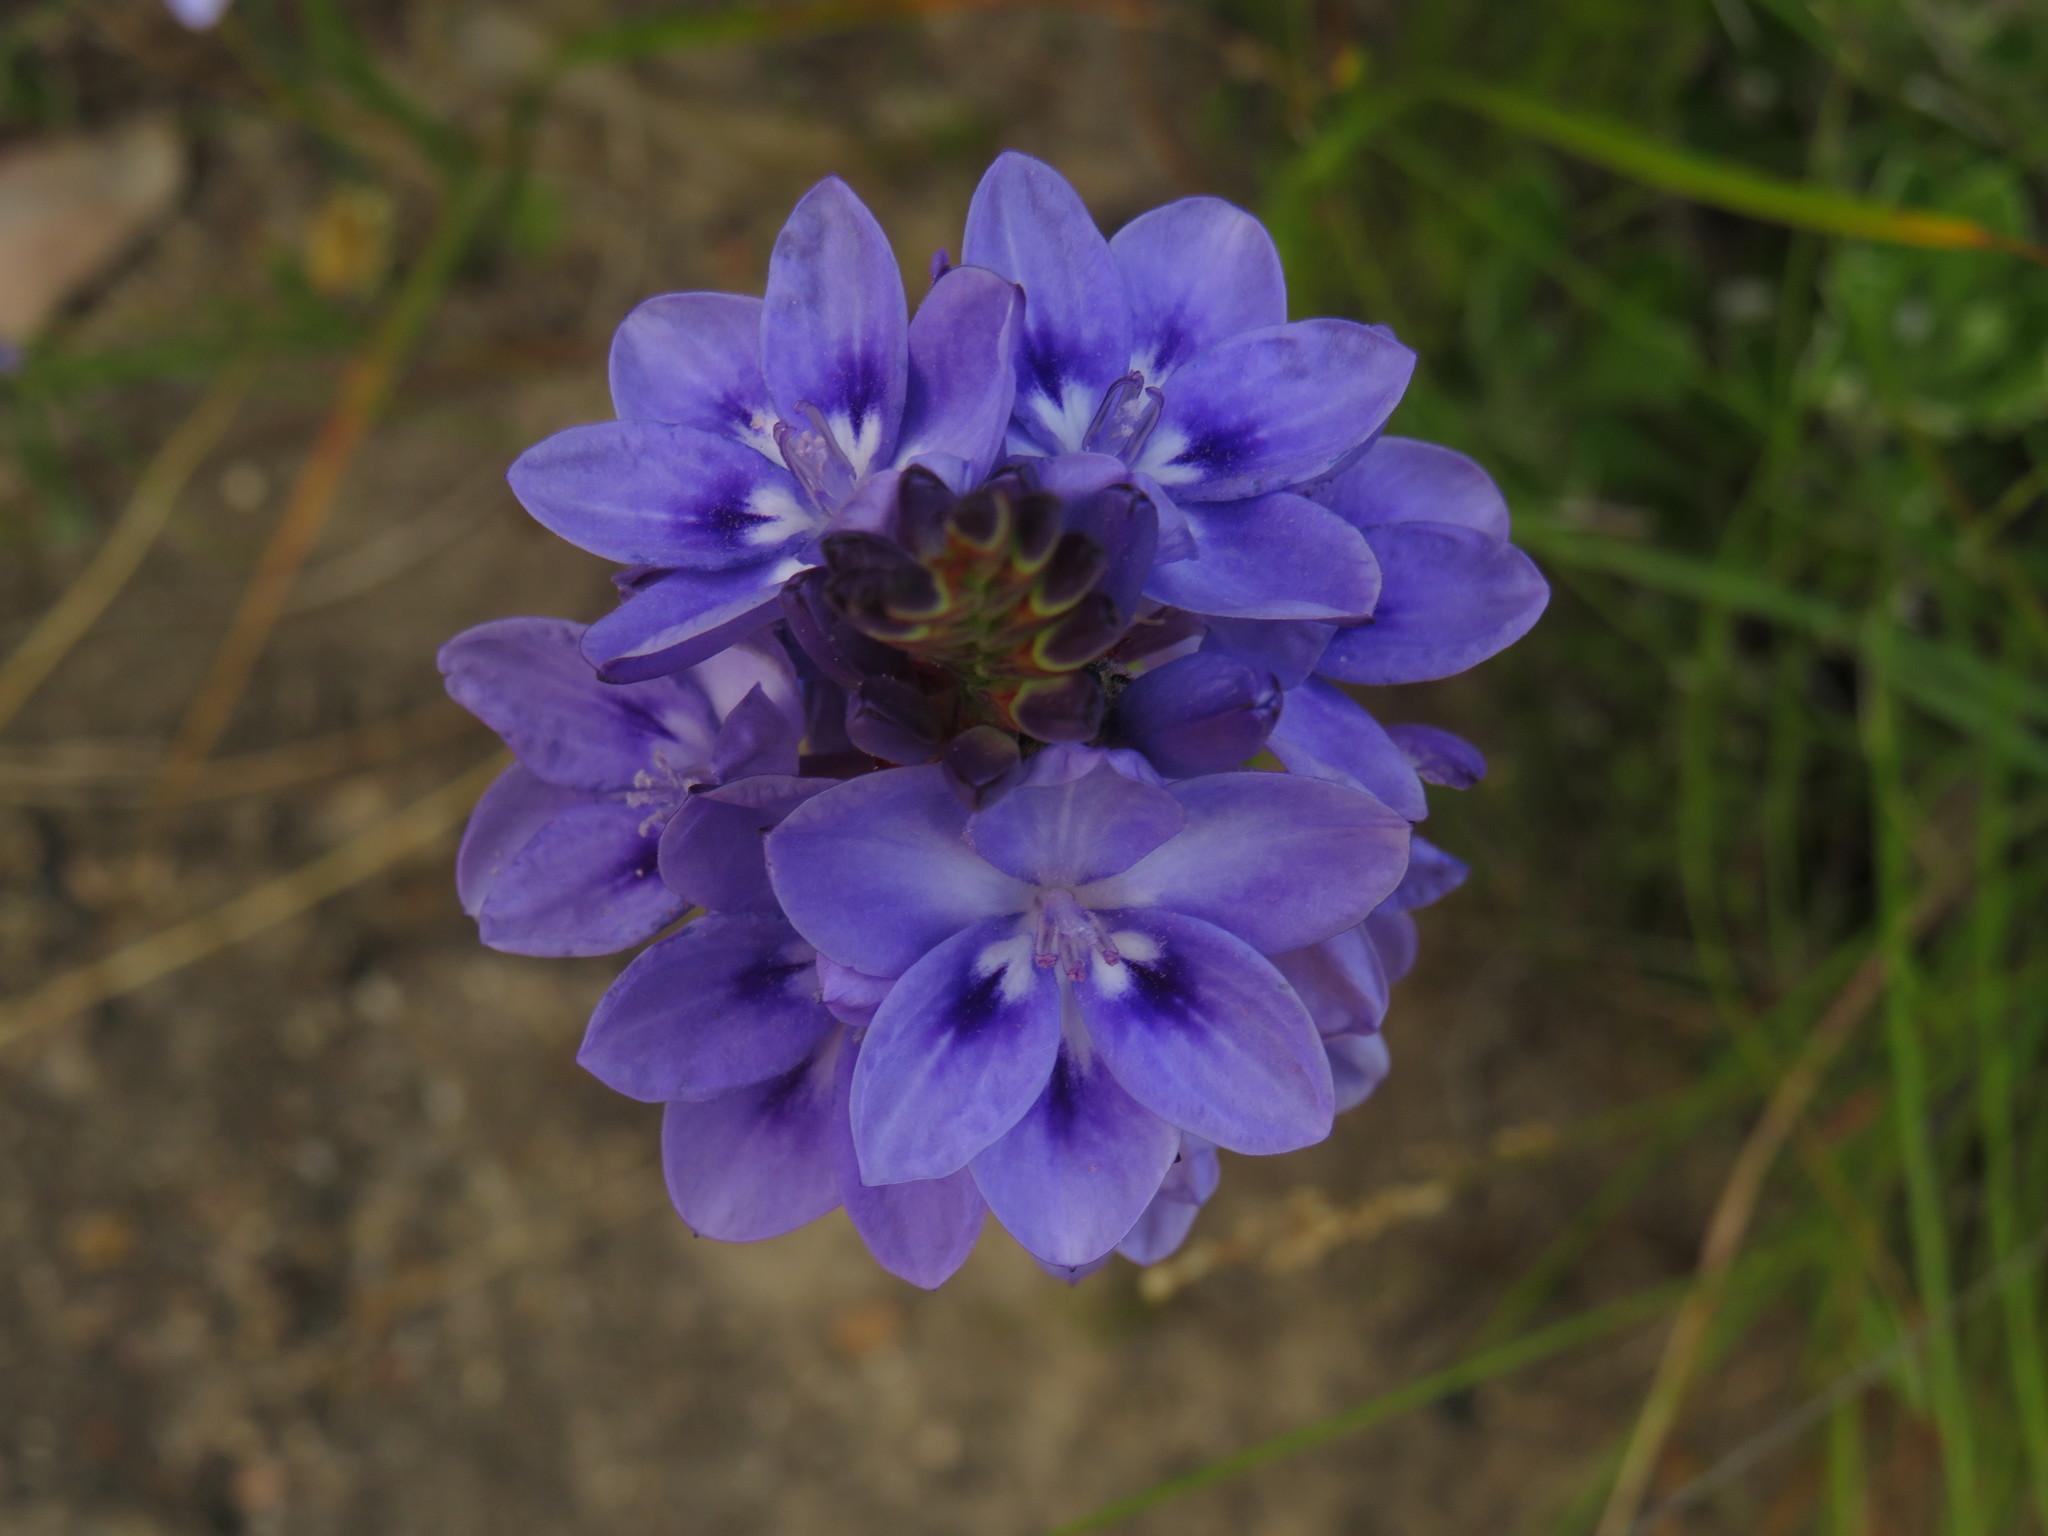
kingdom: Plantae
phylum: Tracheophyta
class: Liliopsida
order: Asparagales
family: Iridaceae
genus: Thereianthus
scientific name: Thereianthus spicatus
